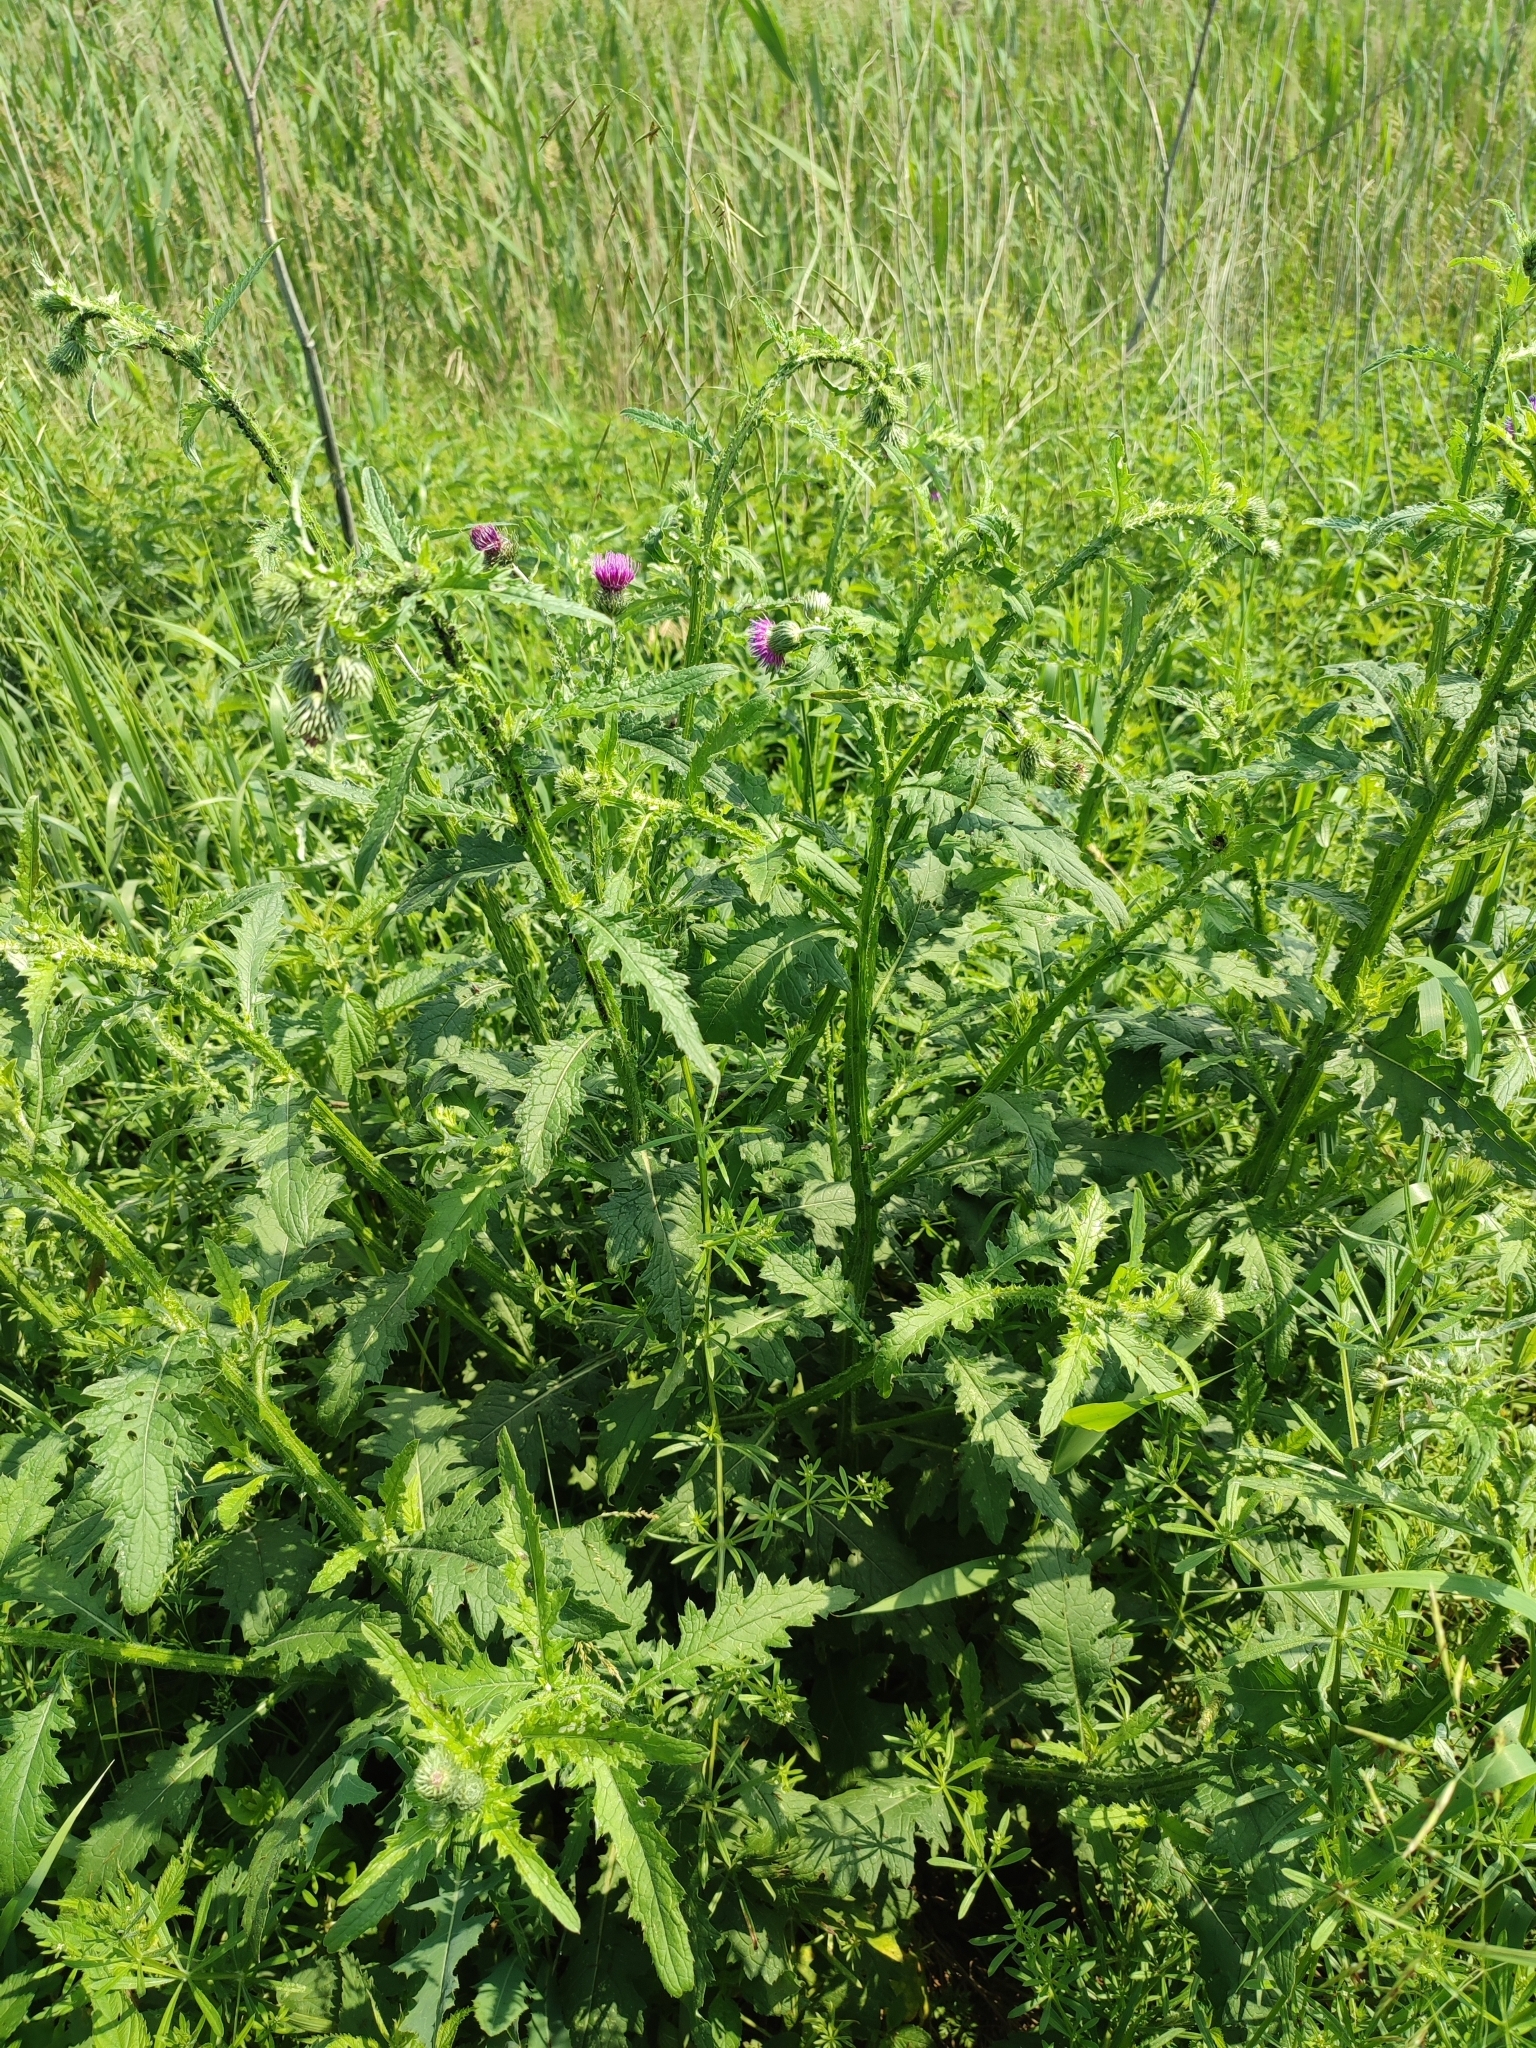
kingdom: Plantae
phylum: Tracheophyta
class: Magnoliopsida
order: Asterales
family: Asteraceae
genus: Carduus
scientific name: Carduus crispus
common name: Welted thistle
